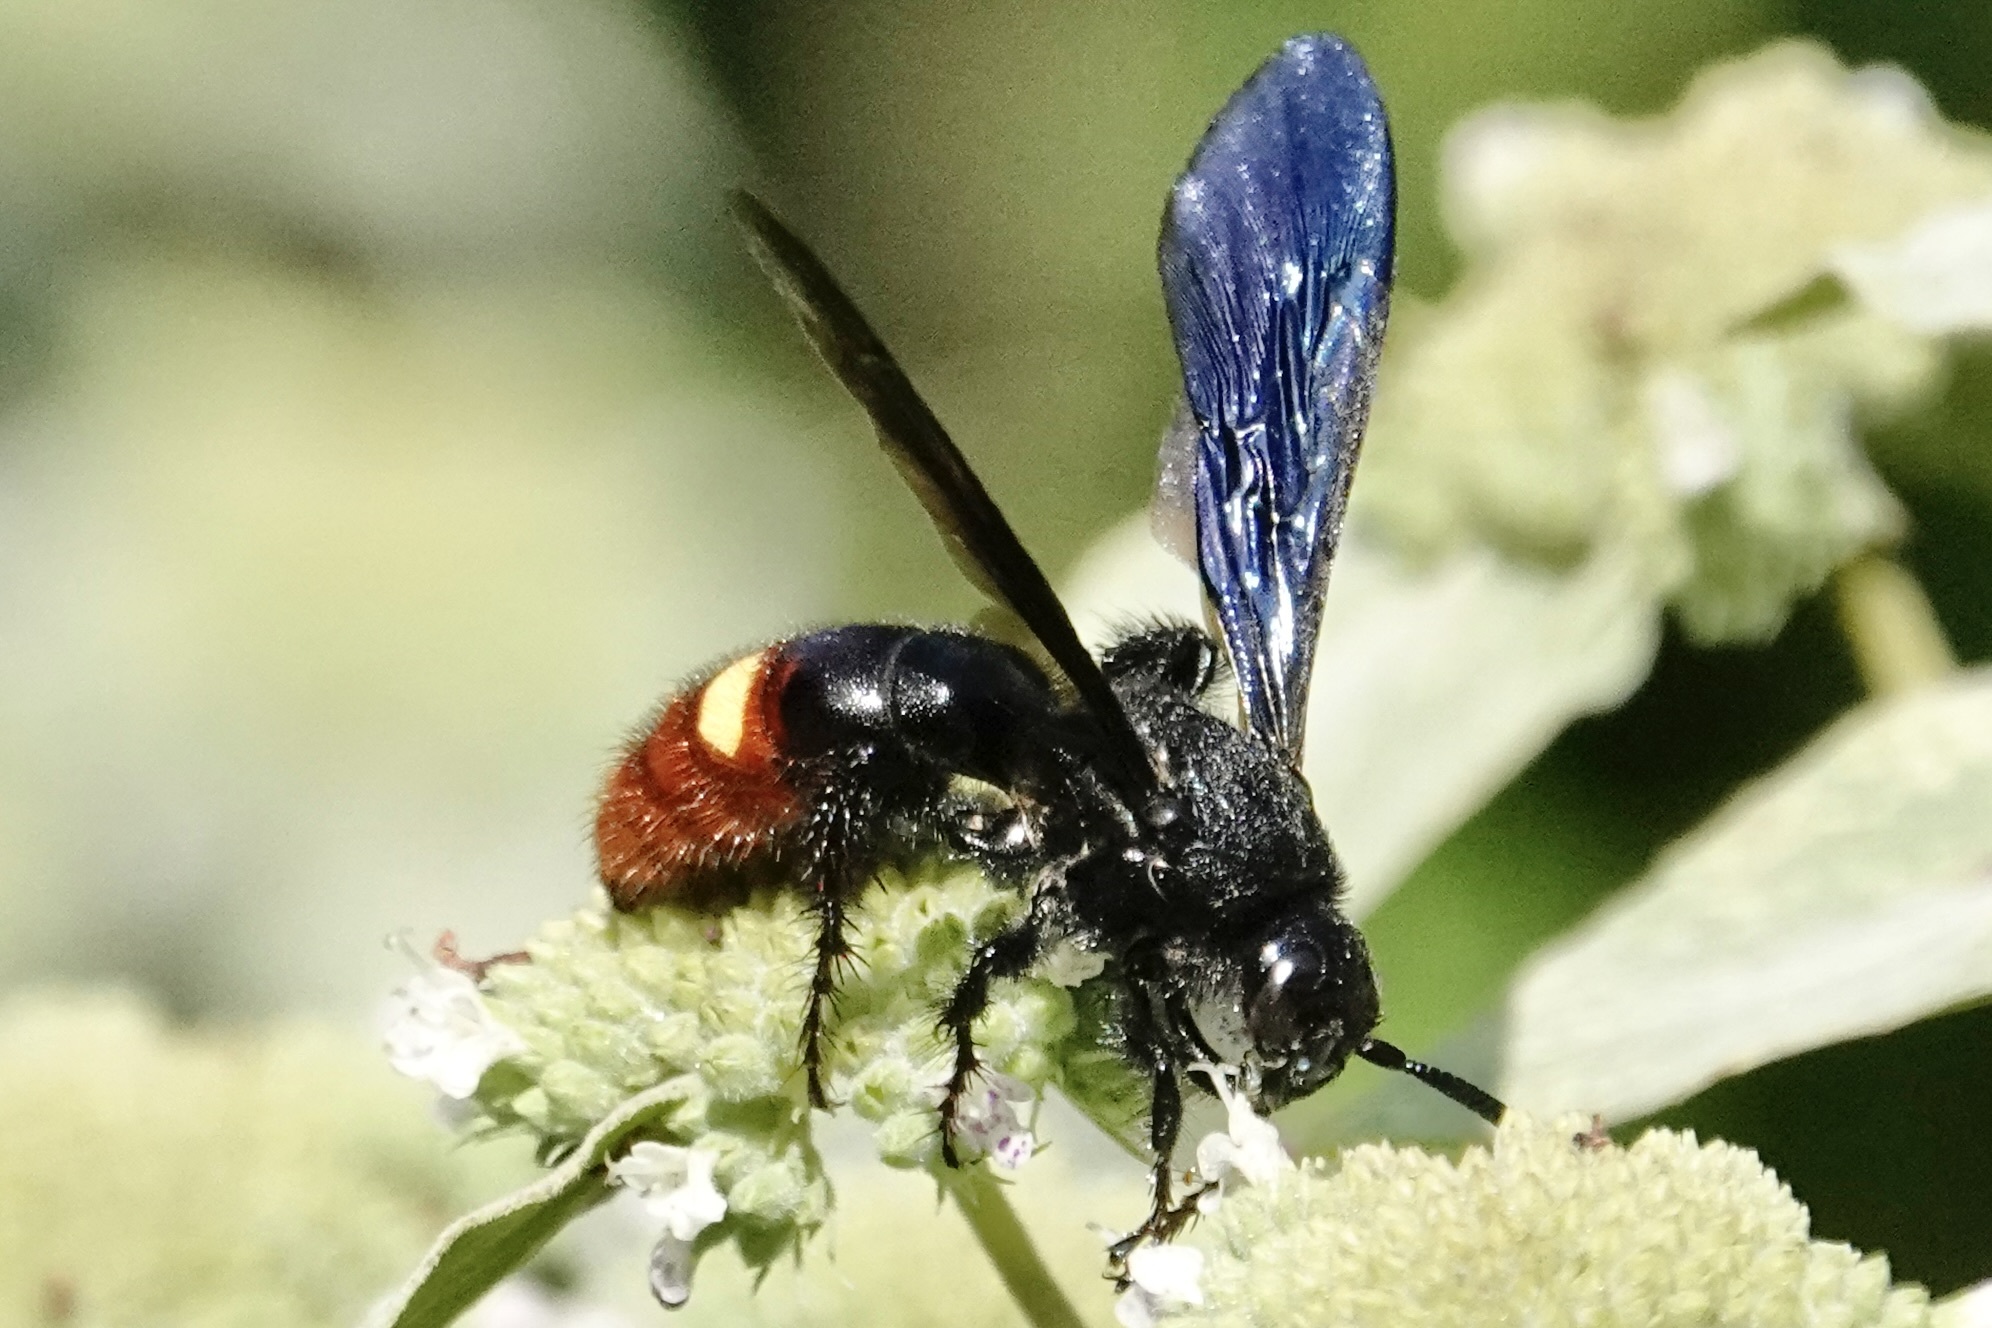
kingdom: Animalia
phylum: Arthropoda
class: Insecta
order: Hymenoptera
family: Scoliidae
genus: Scolia
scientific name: Scolia dubia
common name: Blue-winged scoliid wasp
